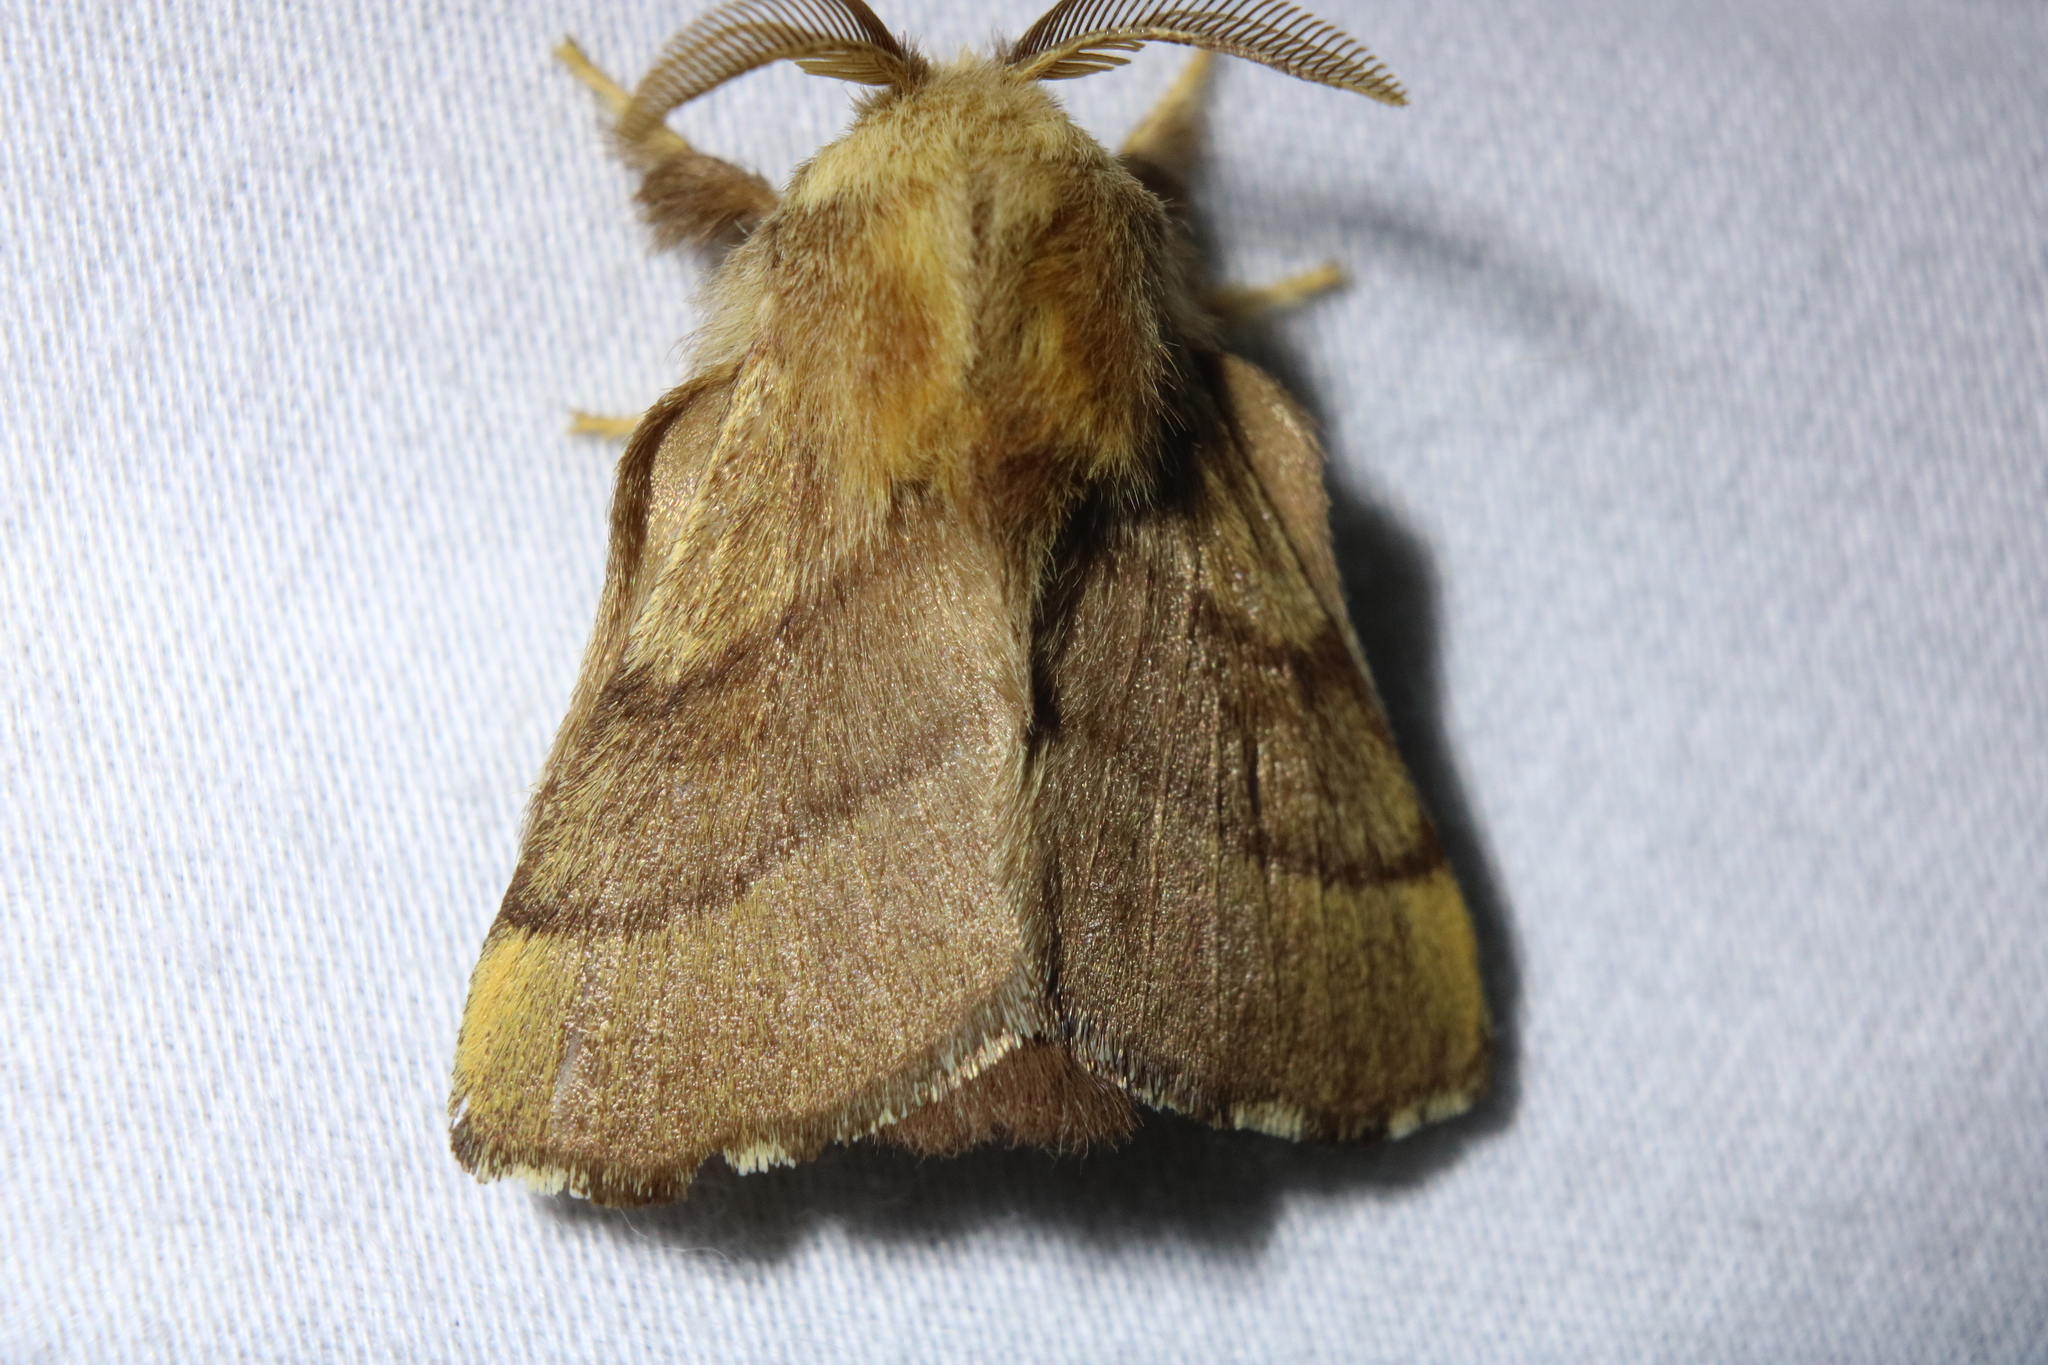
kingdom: Animalia
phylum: Arthropoda
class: Insecta
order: Lepidoptera
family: Lasiocampidae
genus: Malacosoma
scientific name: Malacosoma disstria
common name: Forest tent caterpillar
